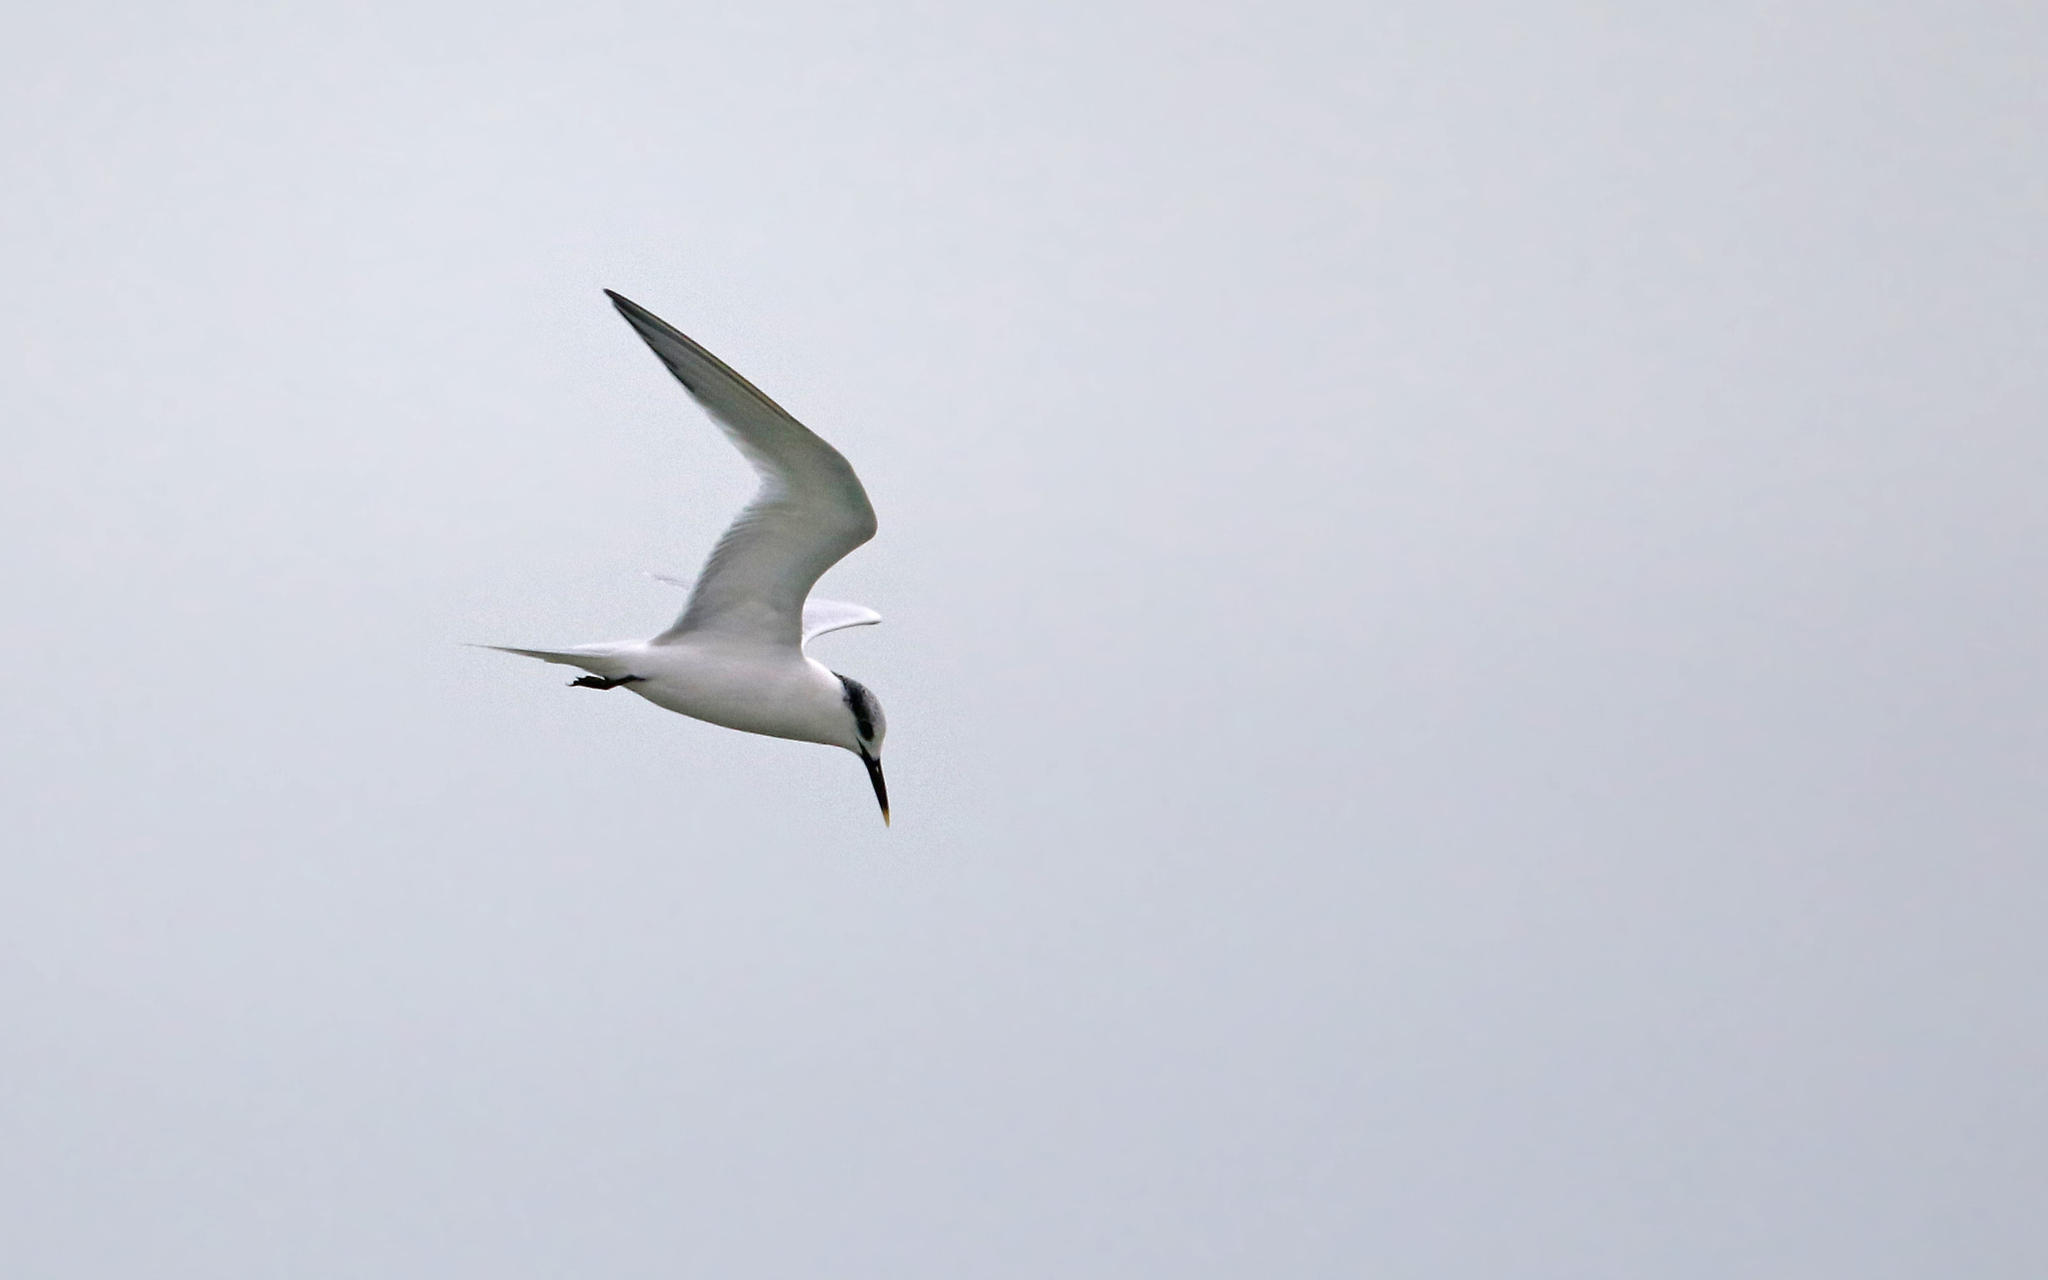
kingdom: Animalia
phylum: Chordata
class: Aves
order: Charadriiformes
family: Laridae
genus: Thalasseus
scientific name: Thalasseus sandvicensis
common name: Sandwich tern
